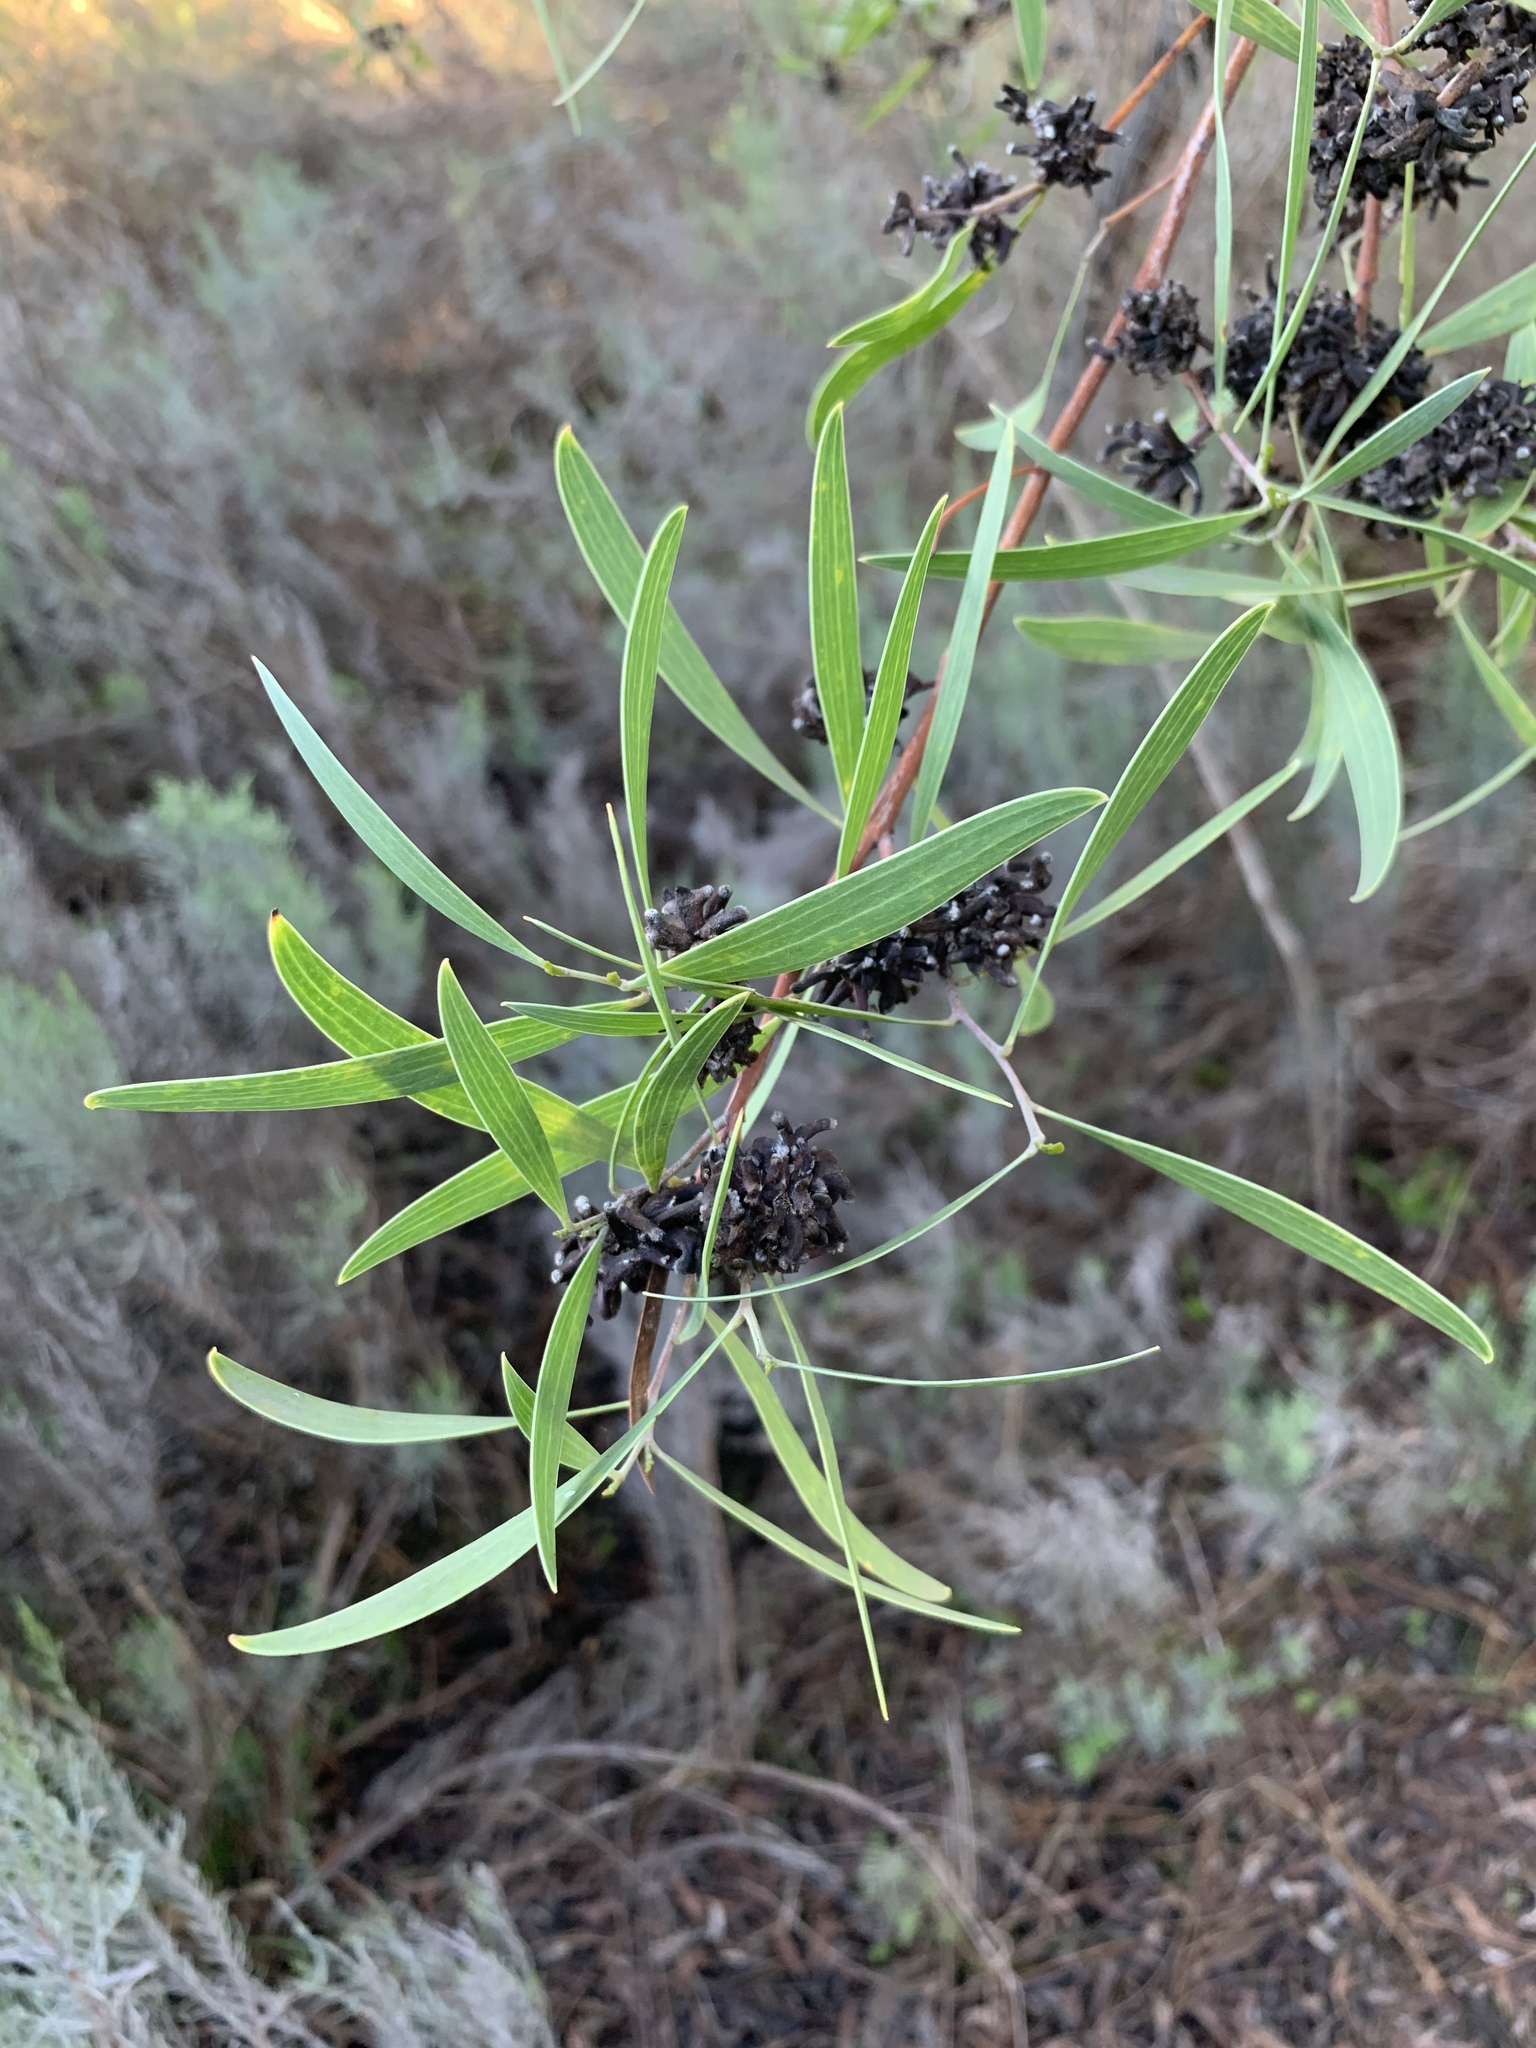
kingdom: Plantae
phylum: Tracheophyta
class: Magnoliopsida
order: Fabales
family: Fabaceae
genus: Acacia
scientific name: Acacia cyclops
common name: Coastal wattle
